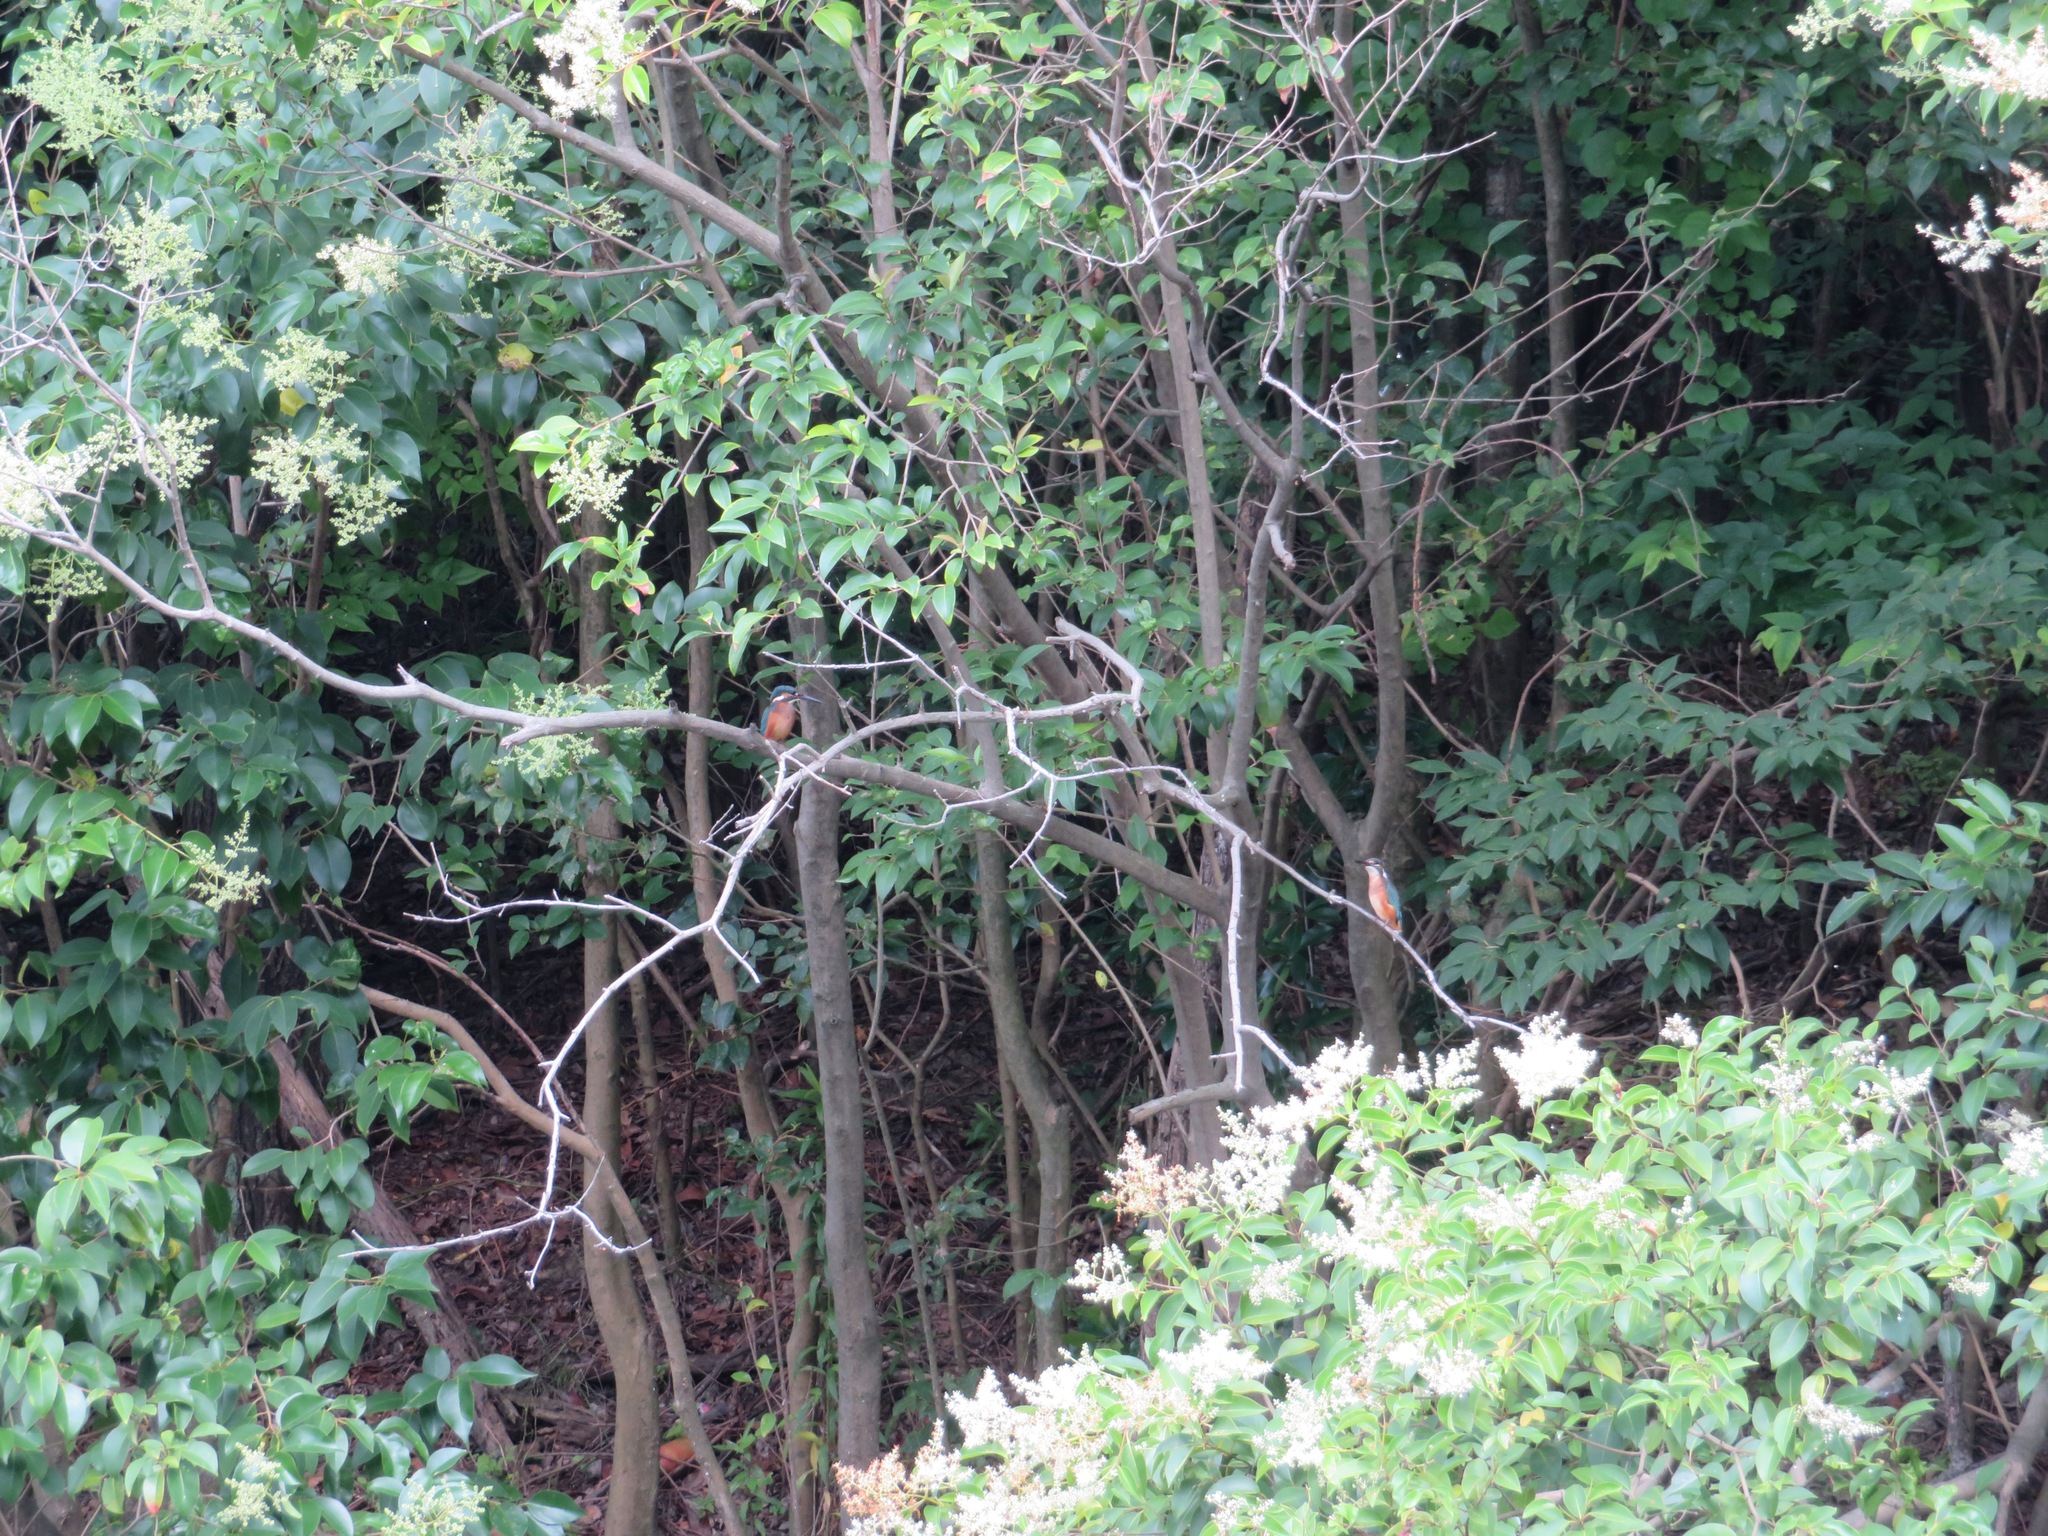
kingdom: Animalia
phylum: Chordata
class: Aves
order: Coraciiformes
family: Alcedinidae
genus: Alcedo
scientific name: Alcedo atthis
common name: Common kingfisher
